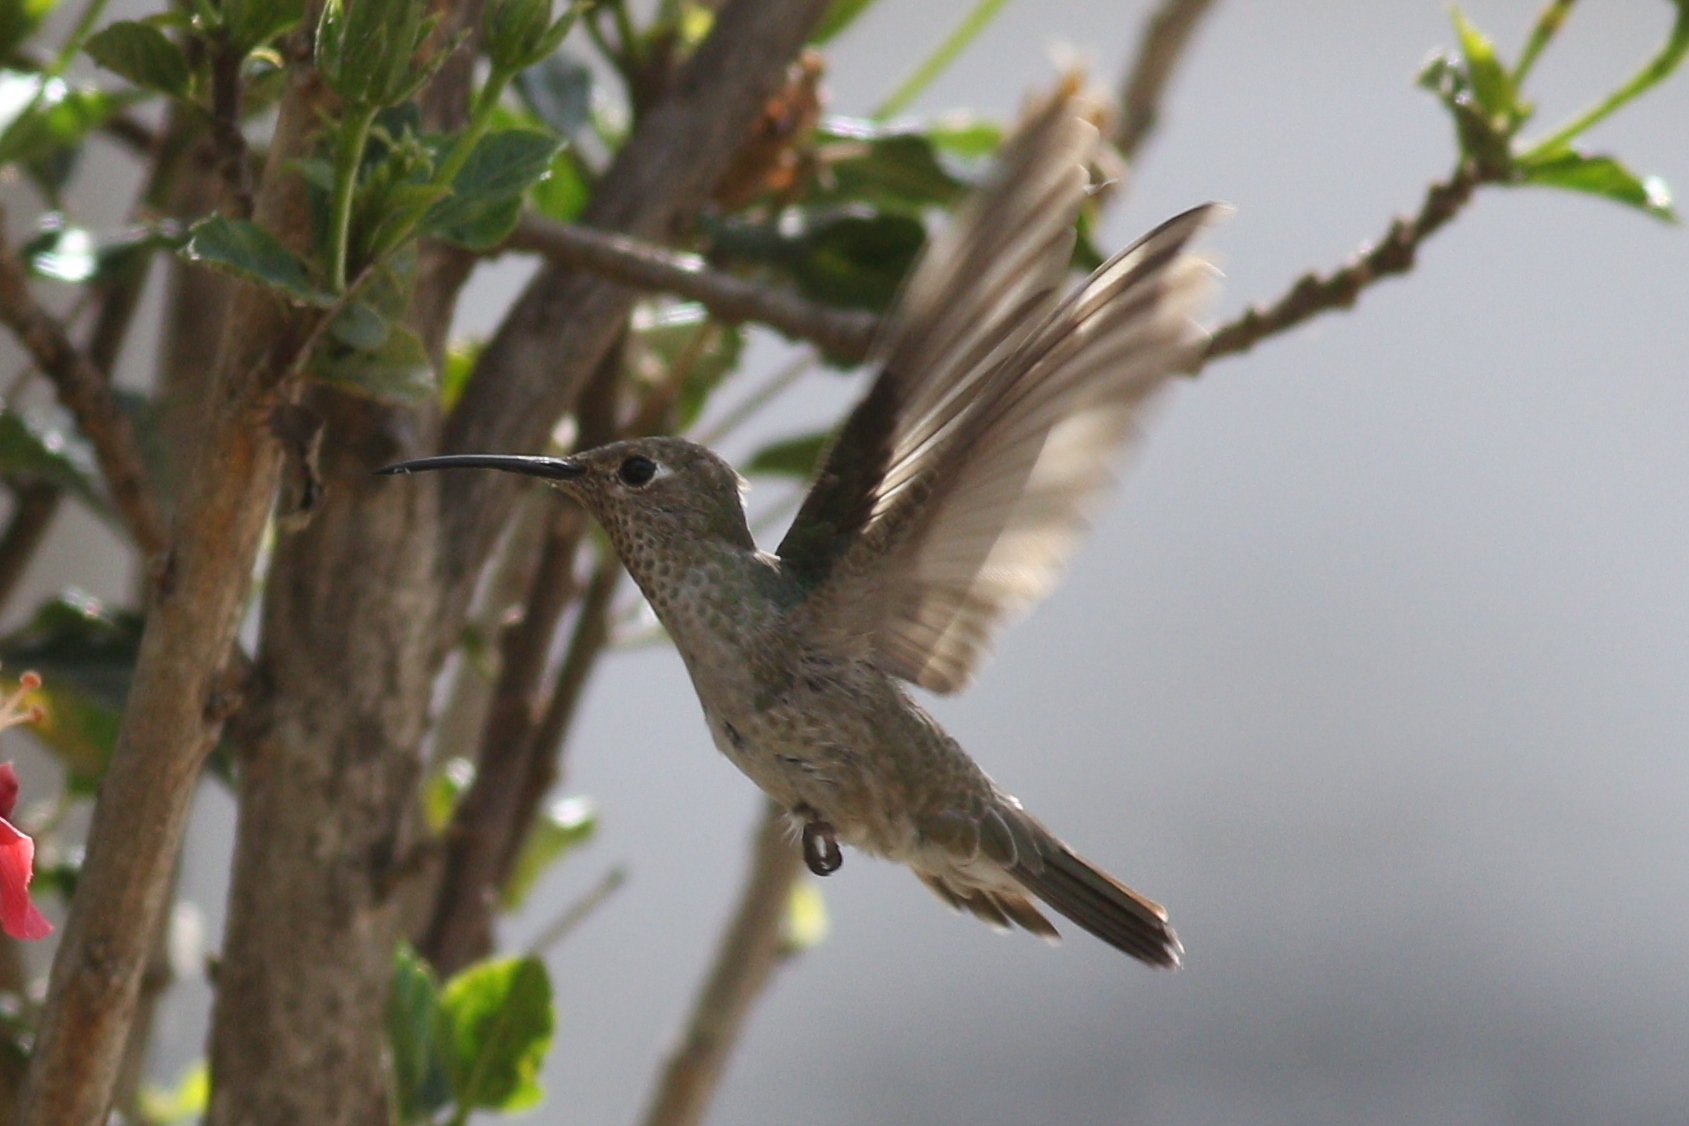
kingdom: Animalia
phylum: Chordata
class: Aves
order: Apodiformes
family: Trochilidae
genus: Thaumasius
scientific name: Thaumasius taczanowskii
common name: Spot-throated hummingbird
